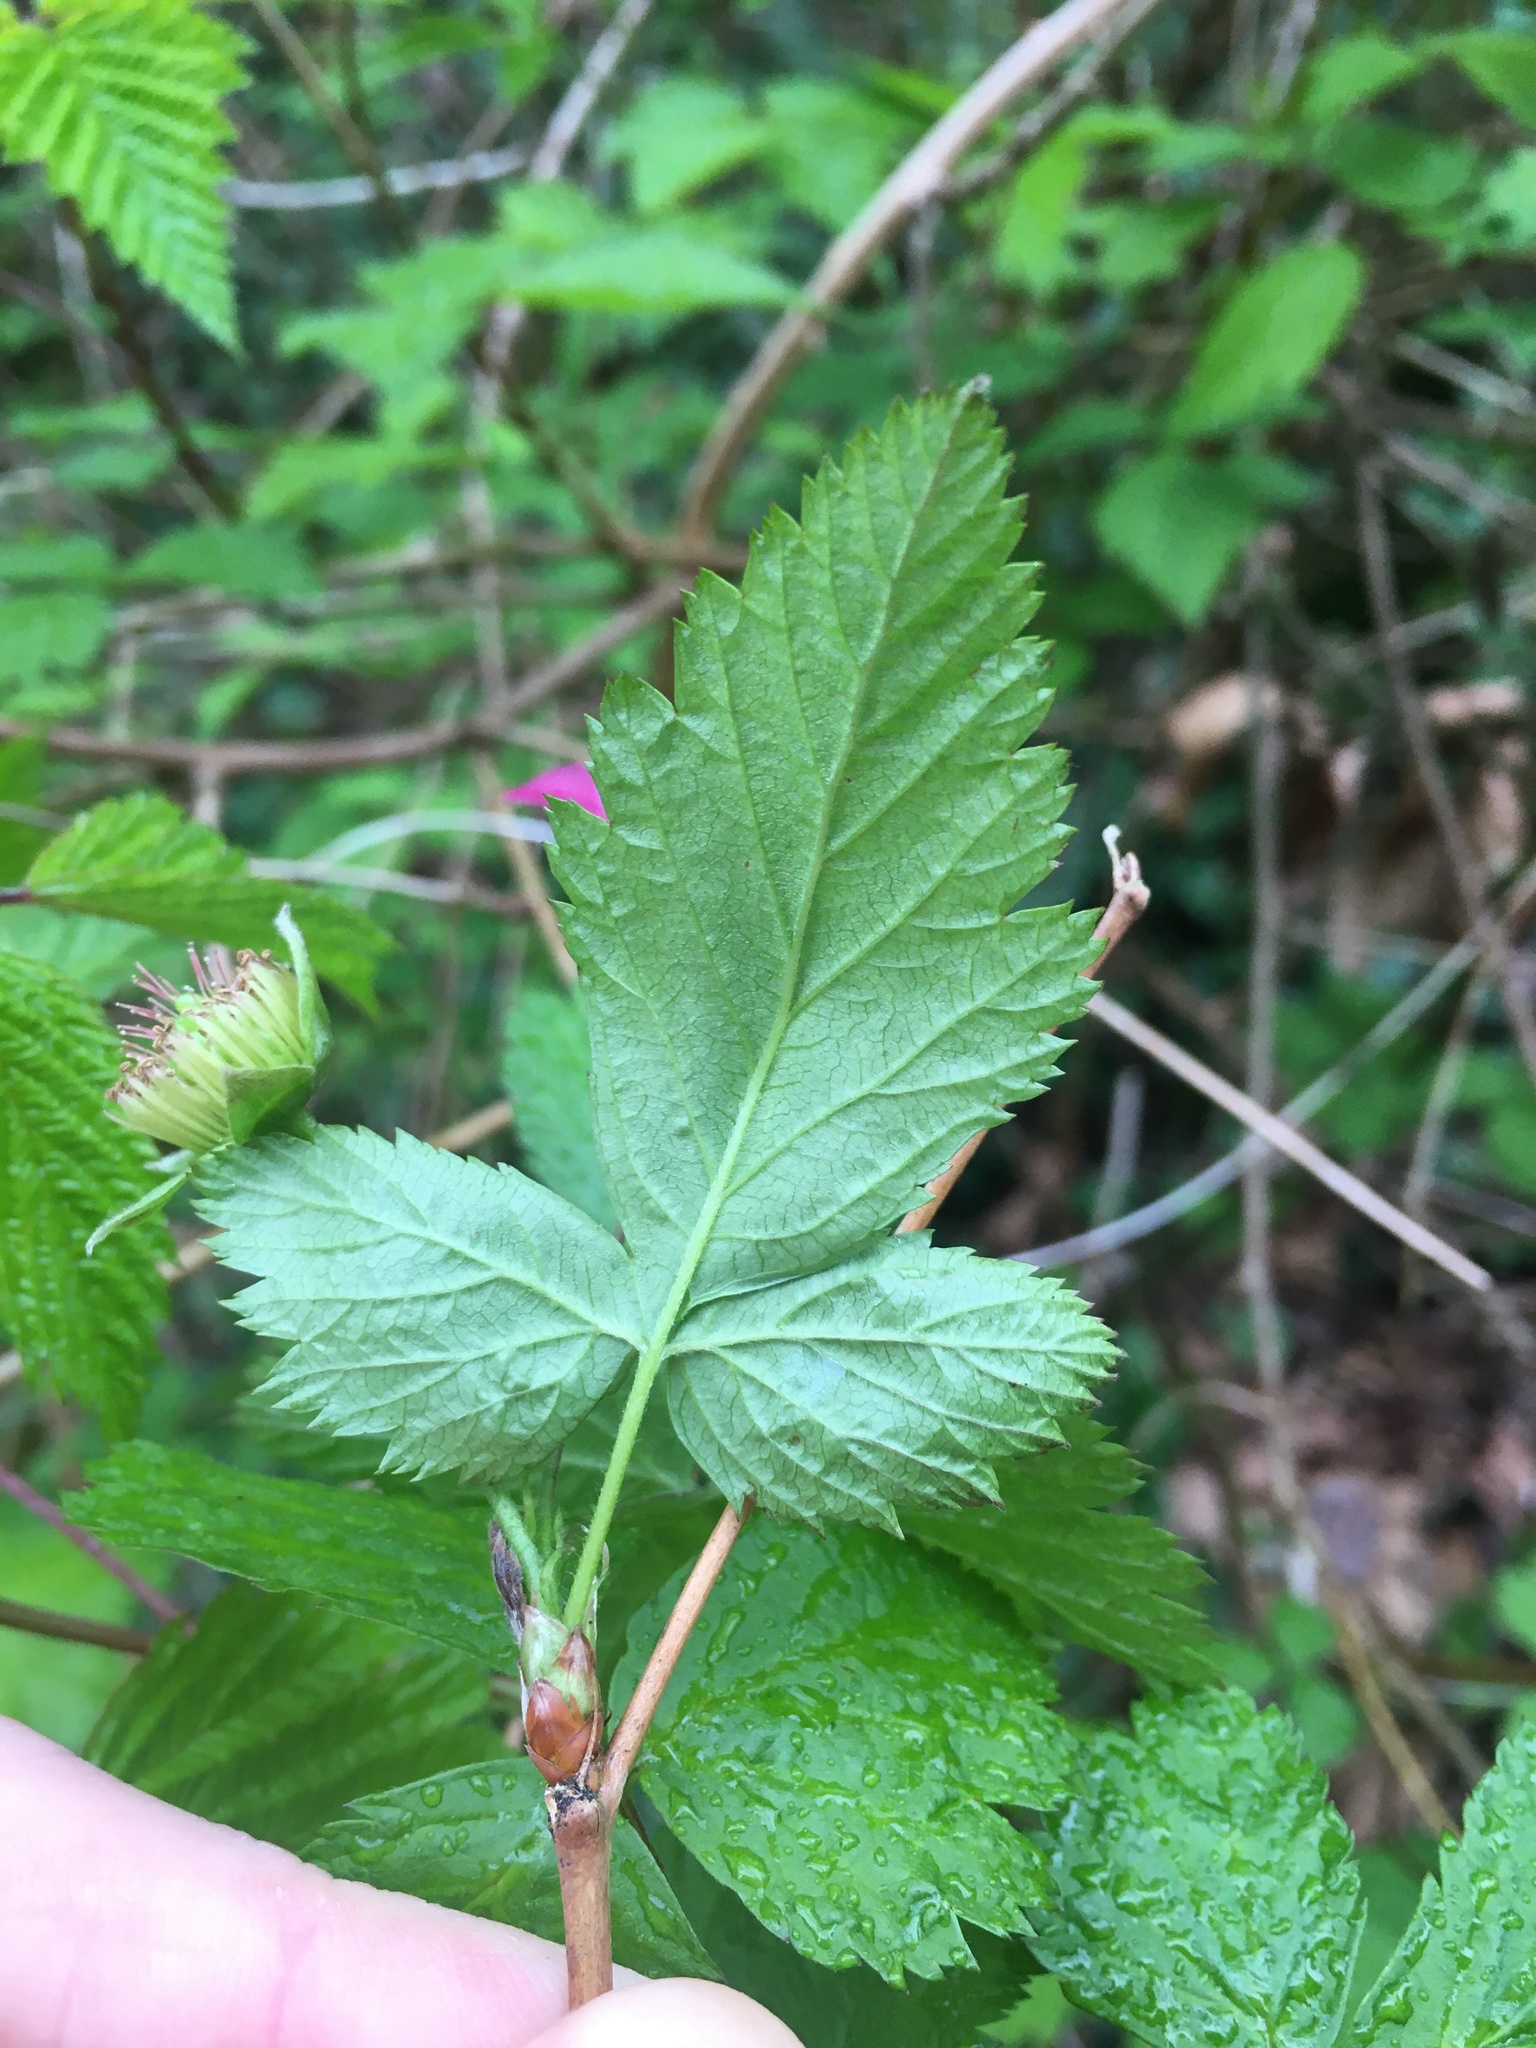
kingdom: Plantae
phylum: Tracheophyta
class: Magnoliopsida
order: Rosales
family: Rosaceae
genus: Rubus
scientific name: Rubus spectabilis
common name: Salmonberry
